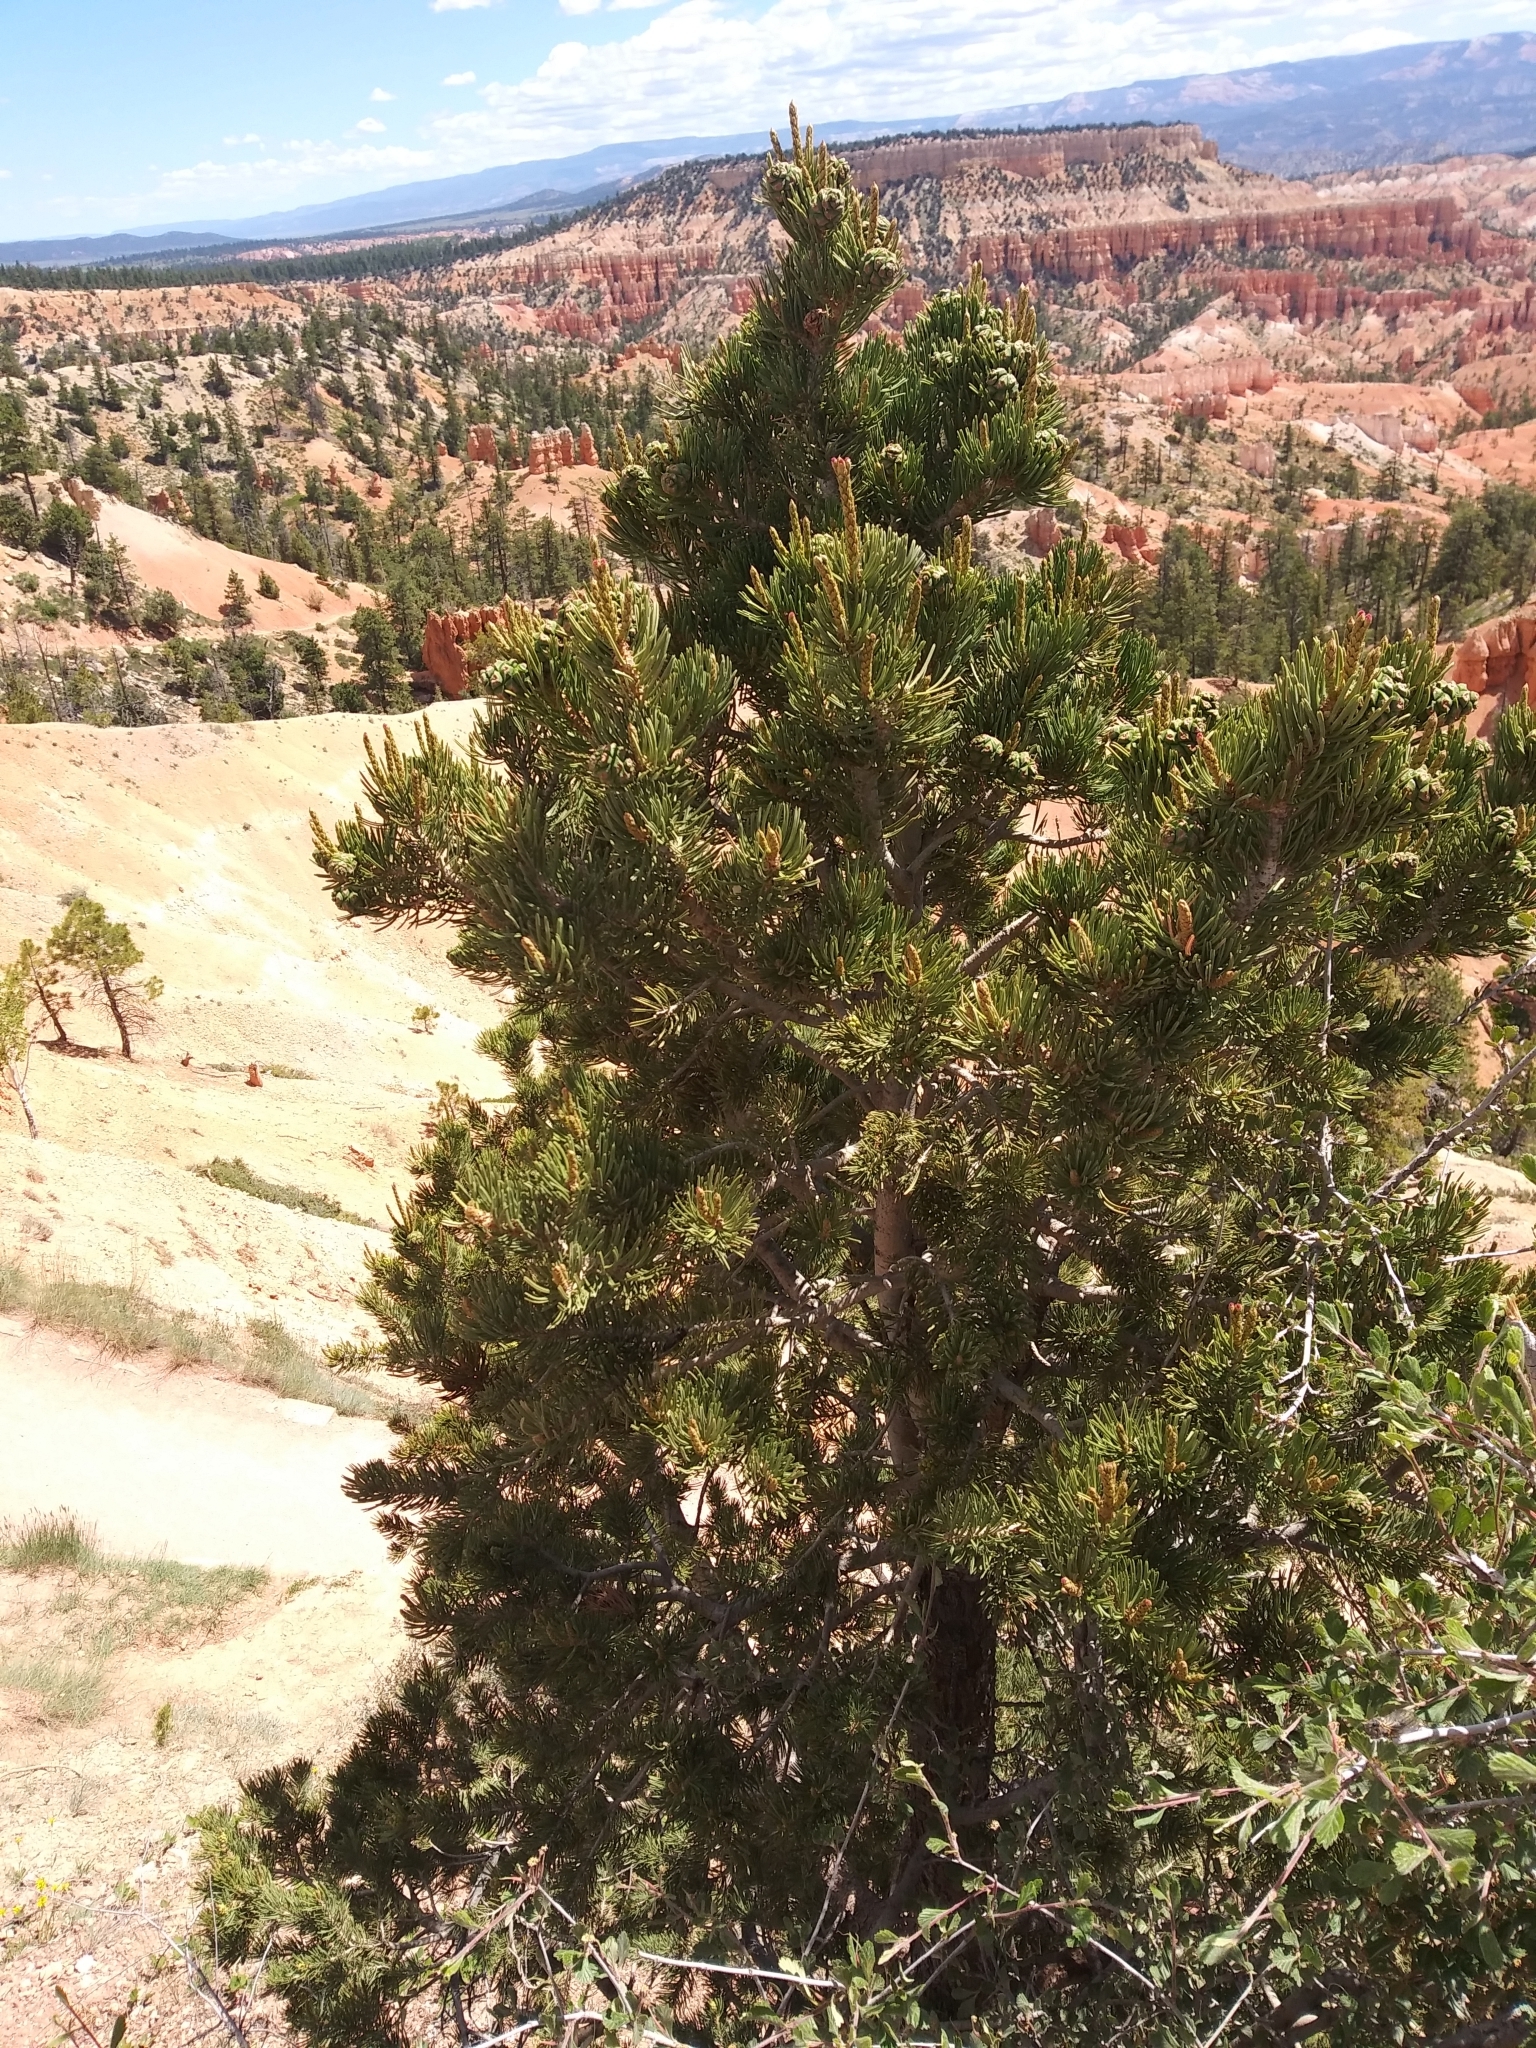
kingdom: Plantae
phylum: Tracheophyta
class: Pinopsida
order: Pinales
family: Pinaceae
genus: Pinus
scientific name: Pinus edulis
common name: Colorado pinyon
